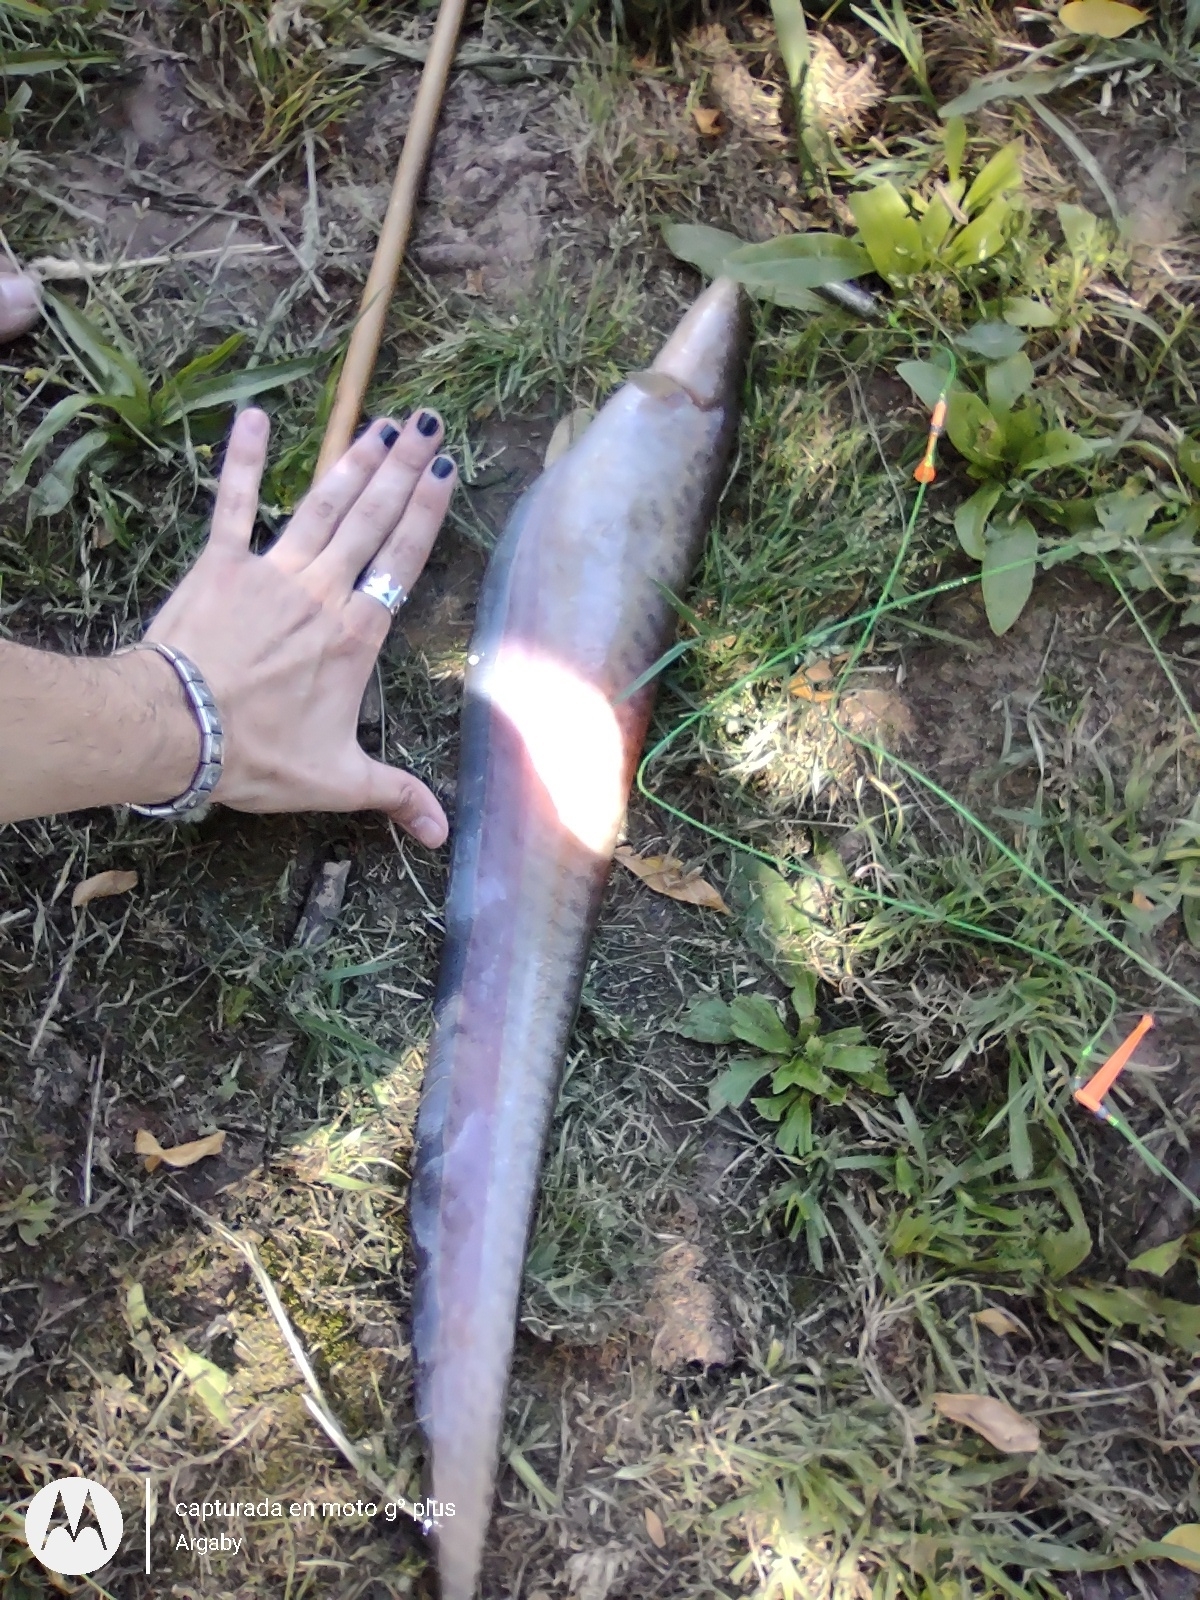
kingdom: Animalia
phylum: Chordata
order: Gymnotiformes
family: Gymnotidae
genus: Gymnotus
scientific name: Gymnotus inaequilabiatus
